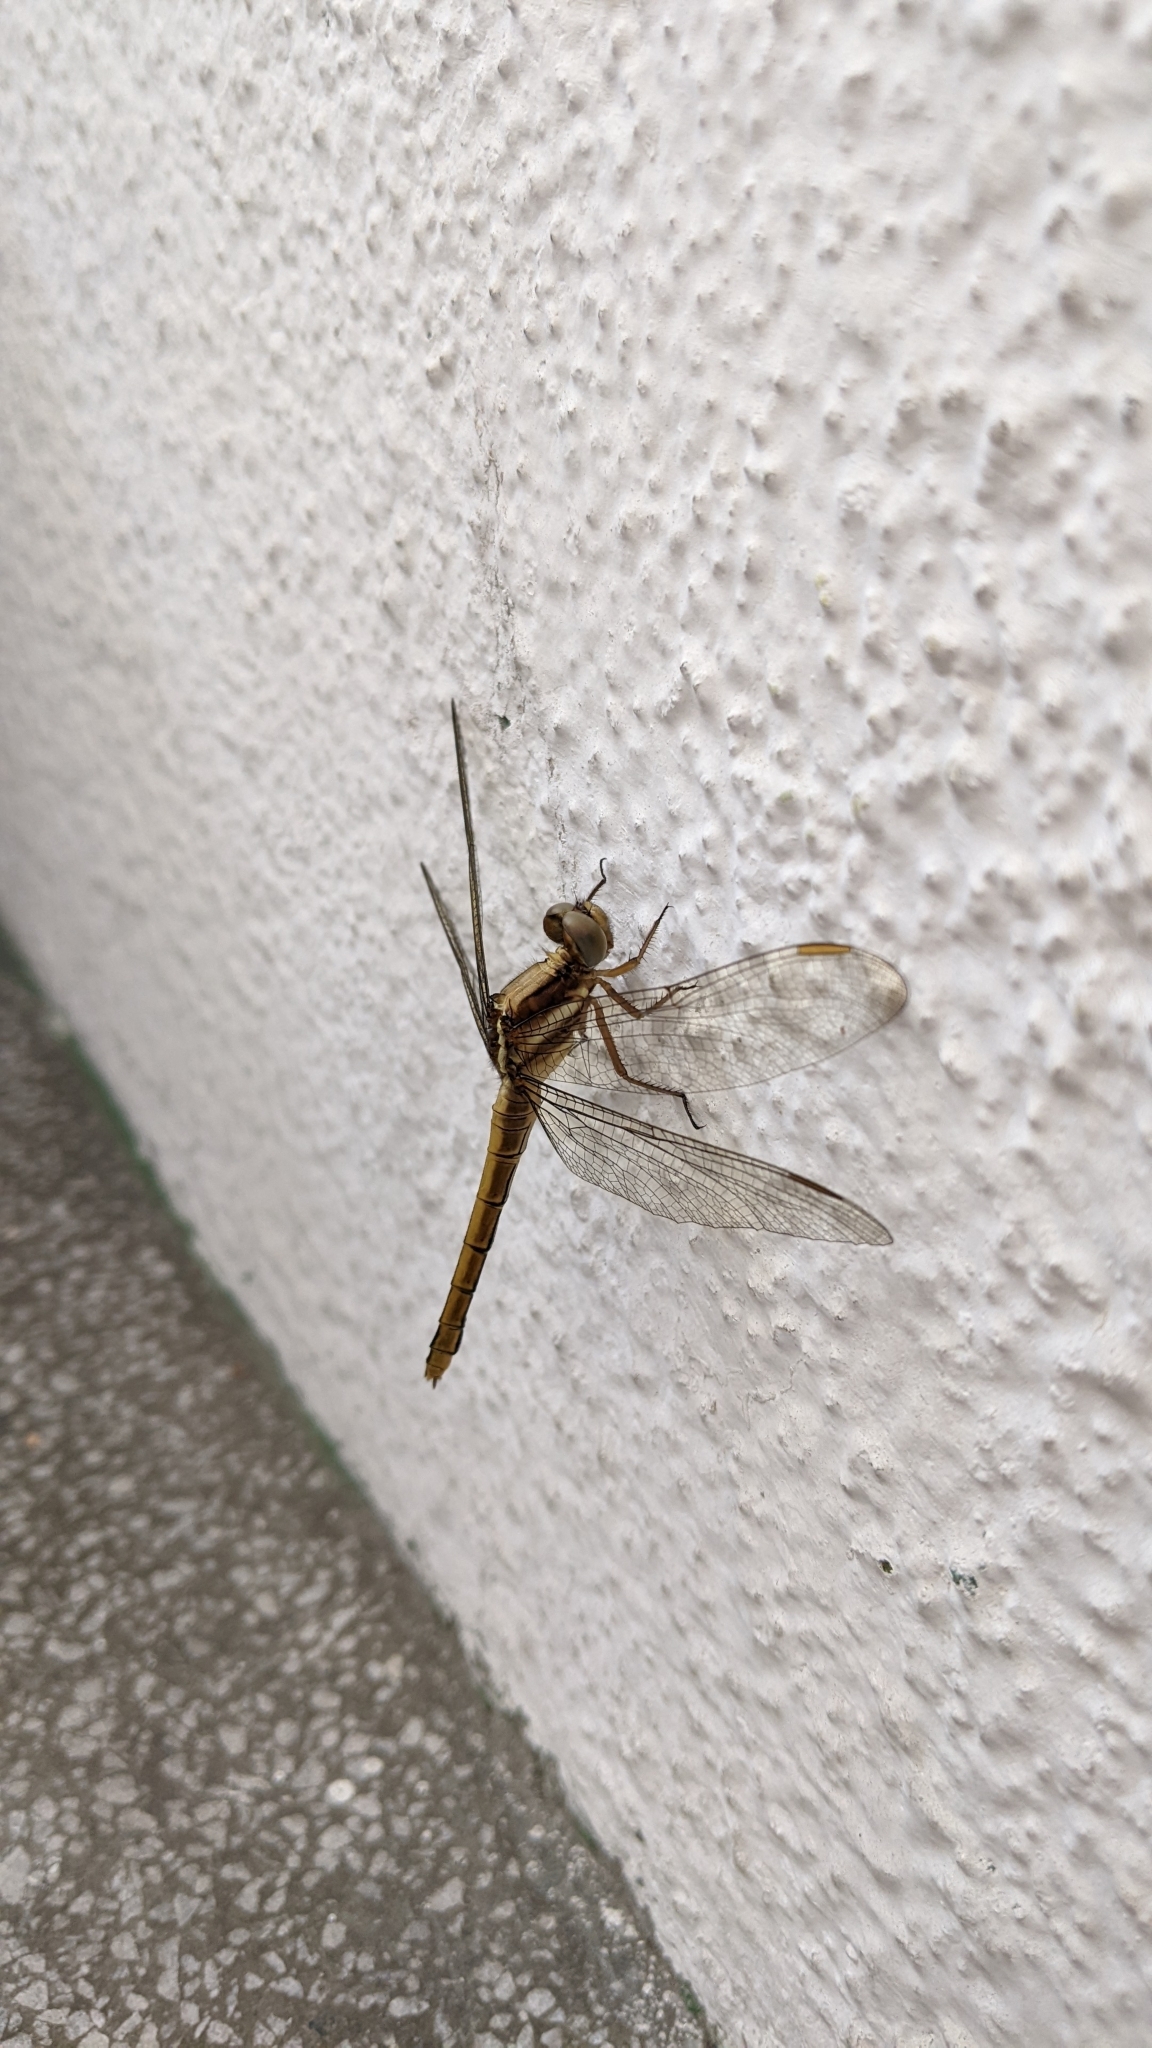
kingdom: Animalia
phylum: Arthropoda
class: Insecta
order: Odonata
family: Libellulidae
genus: Orthetrum
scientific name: Orthetrum glaucum
